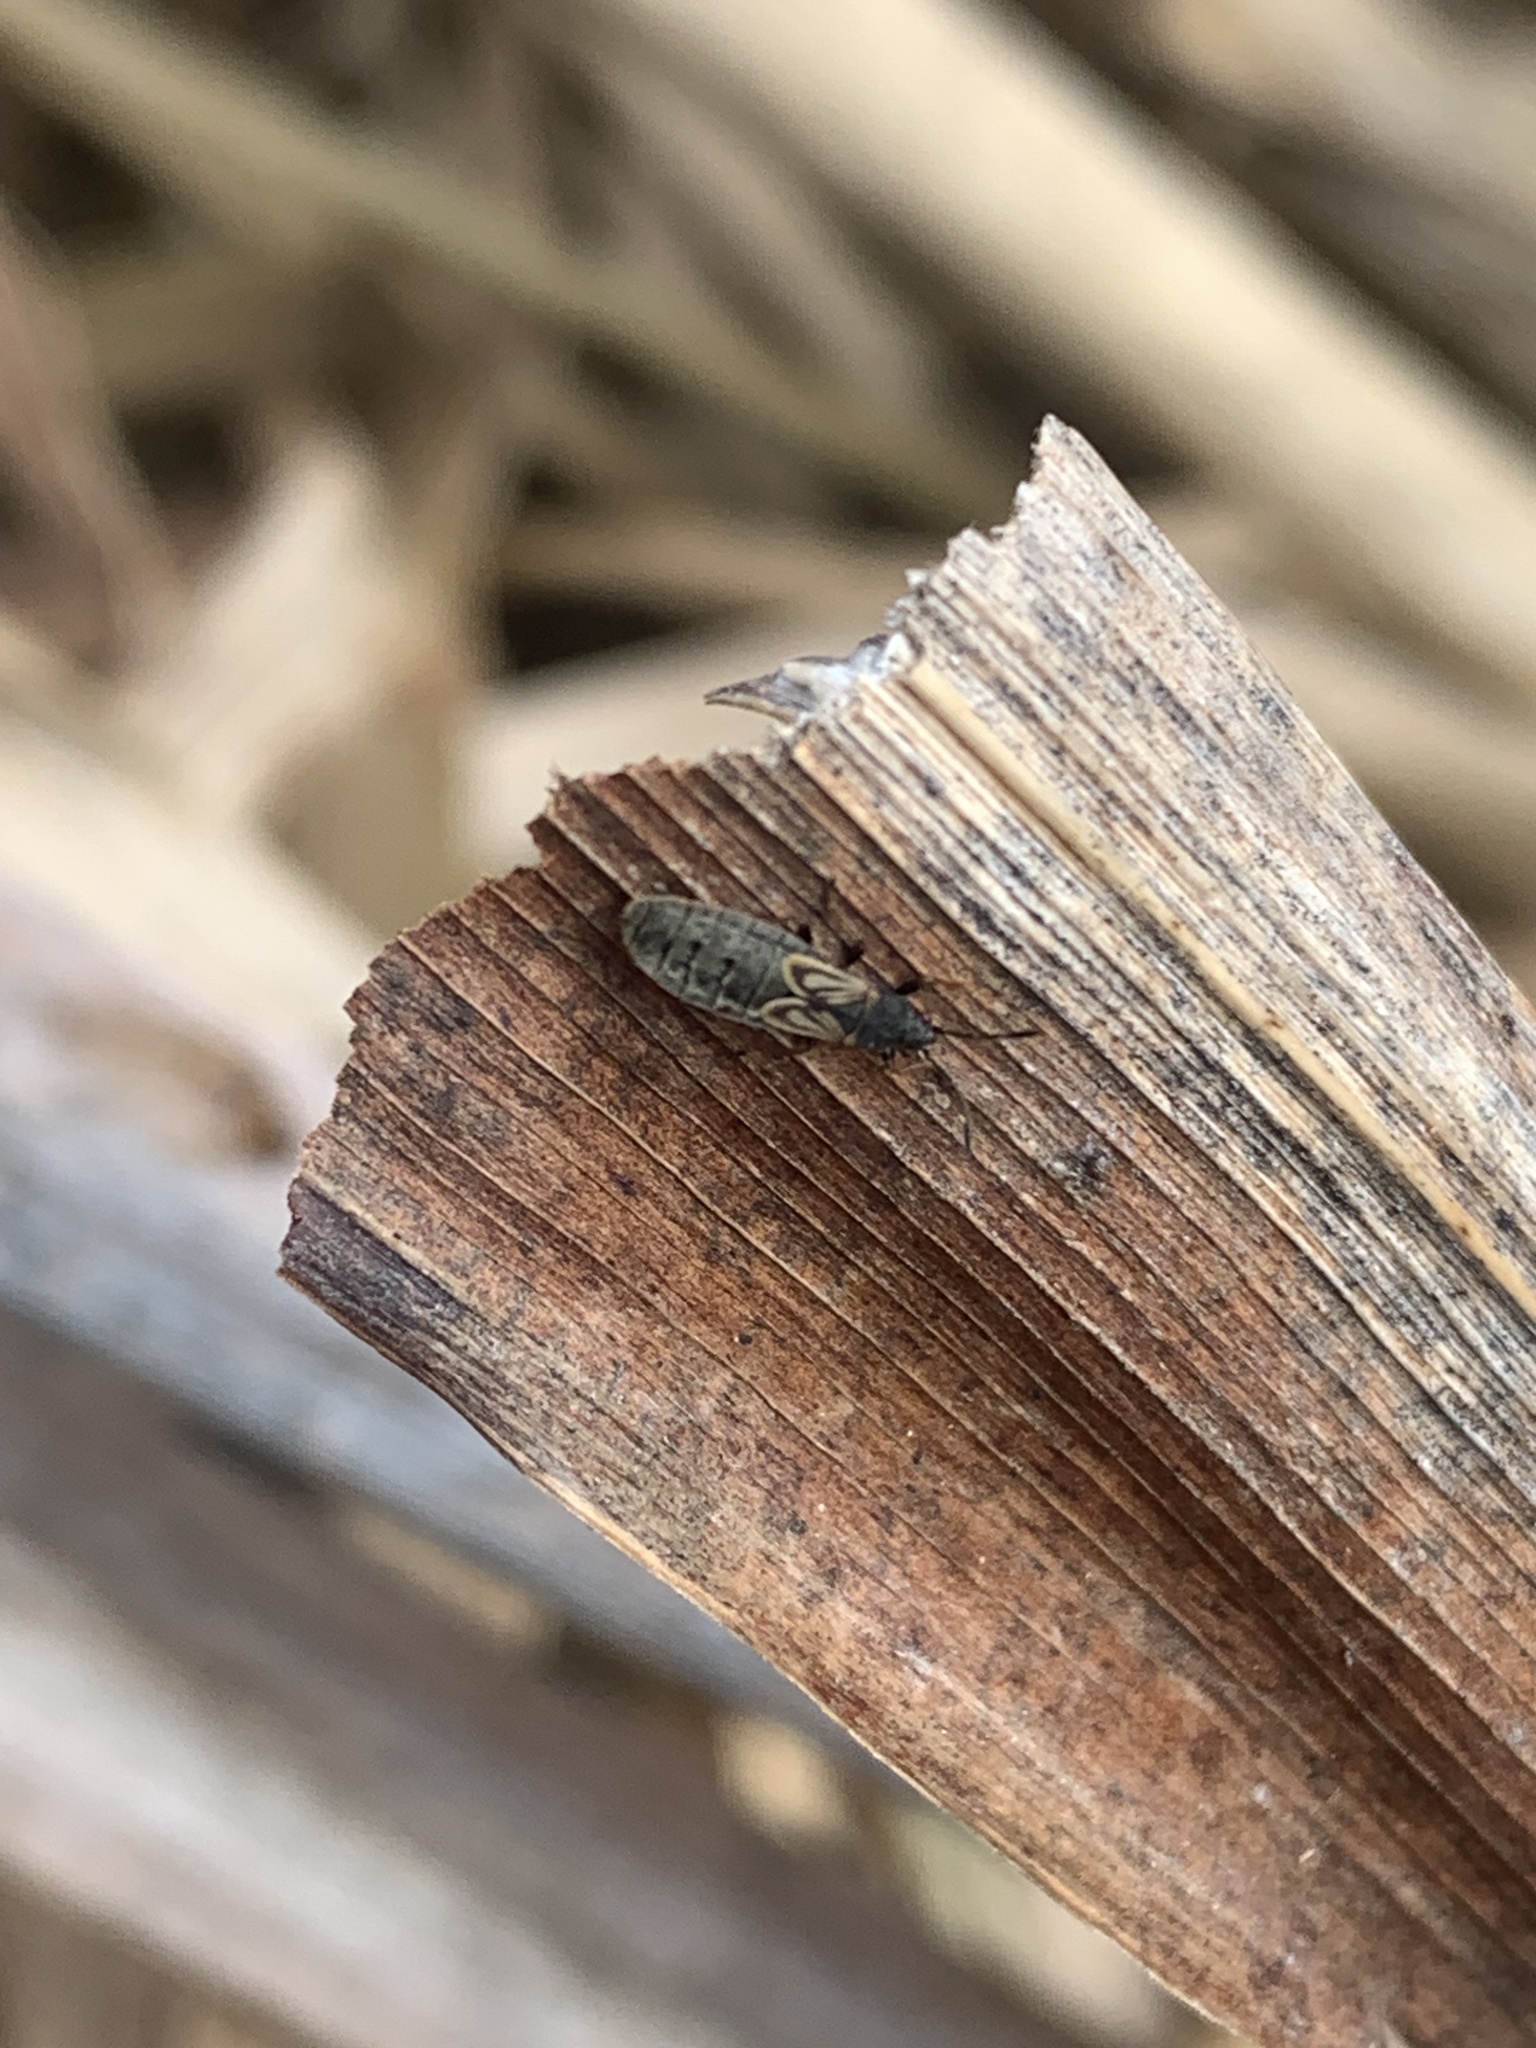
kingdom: Animalia
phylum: Arthropoda
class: Insecta
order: Hemiptera
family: Blissidae
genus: Ischnodemus
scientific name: Ischnodemus sabuleti
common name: European cinchbug
